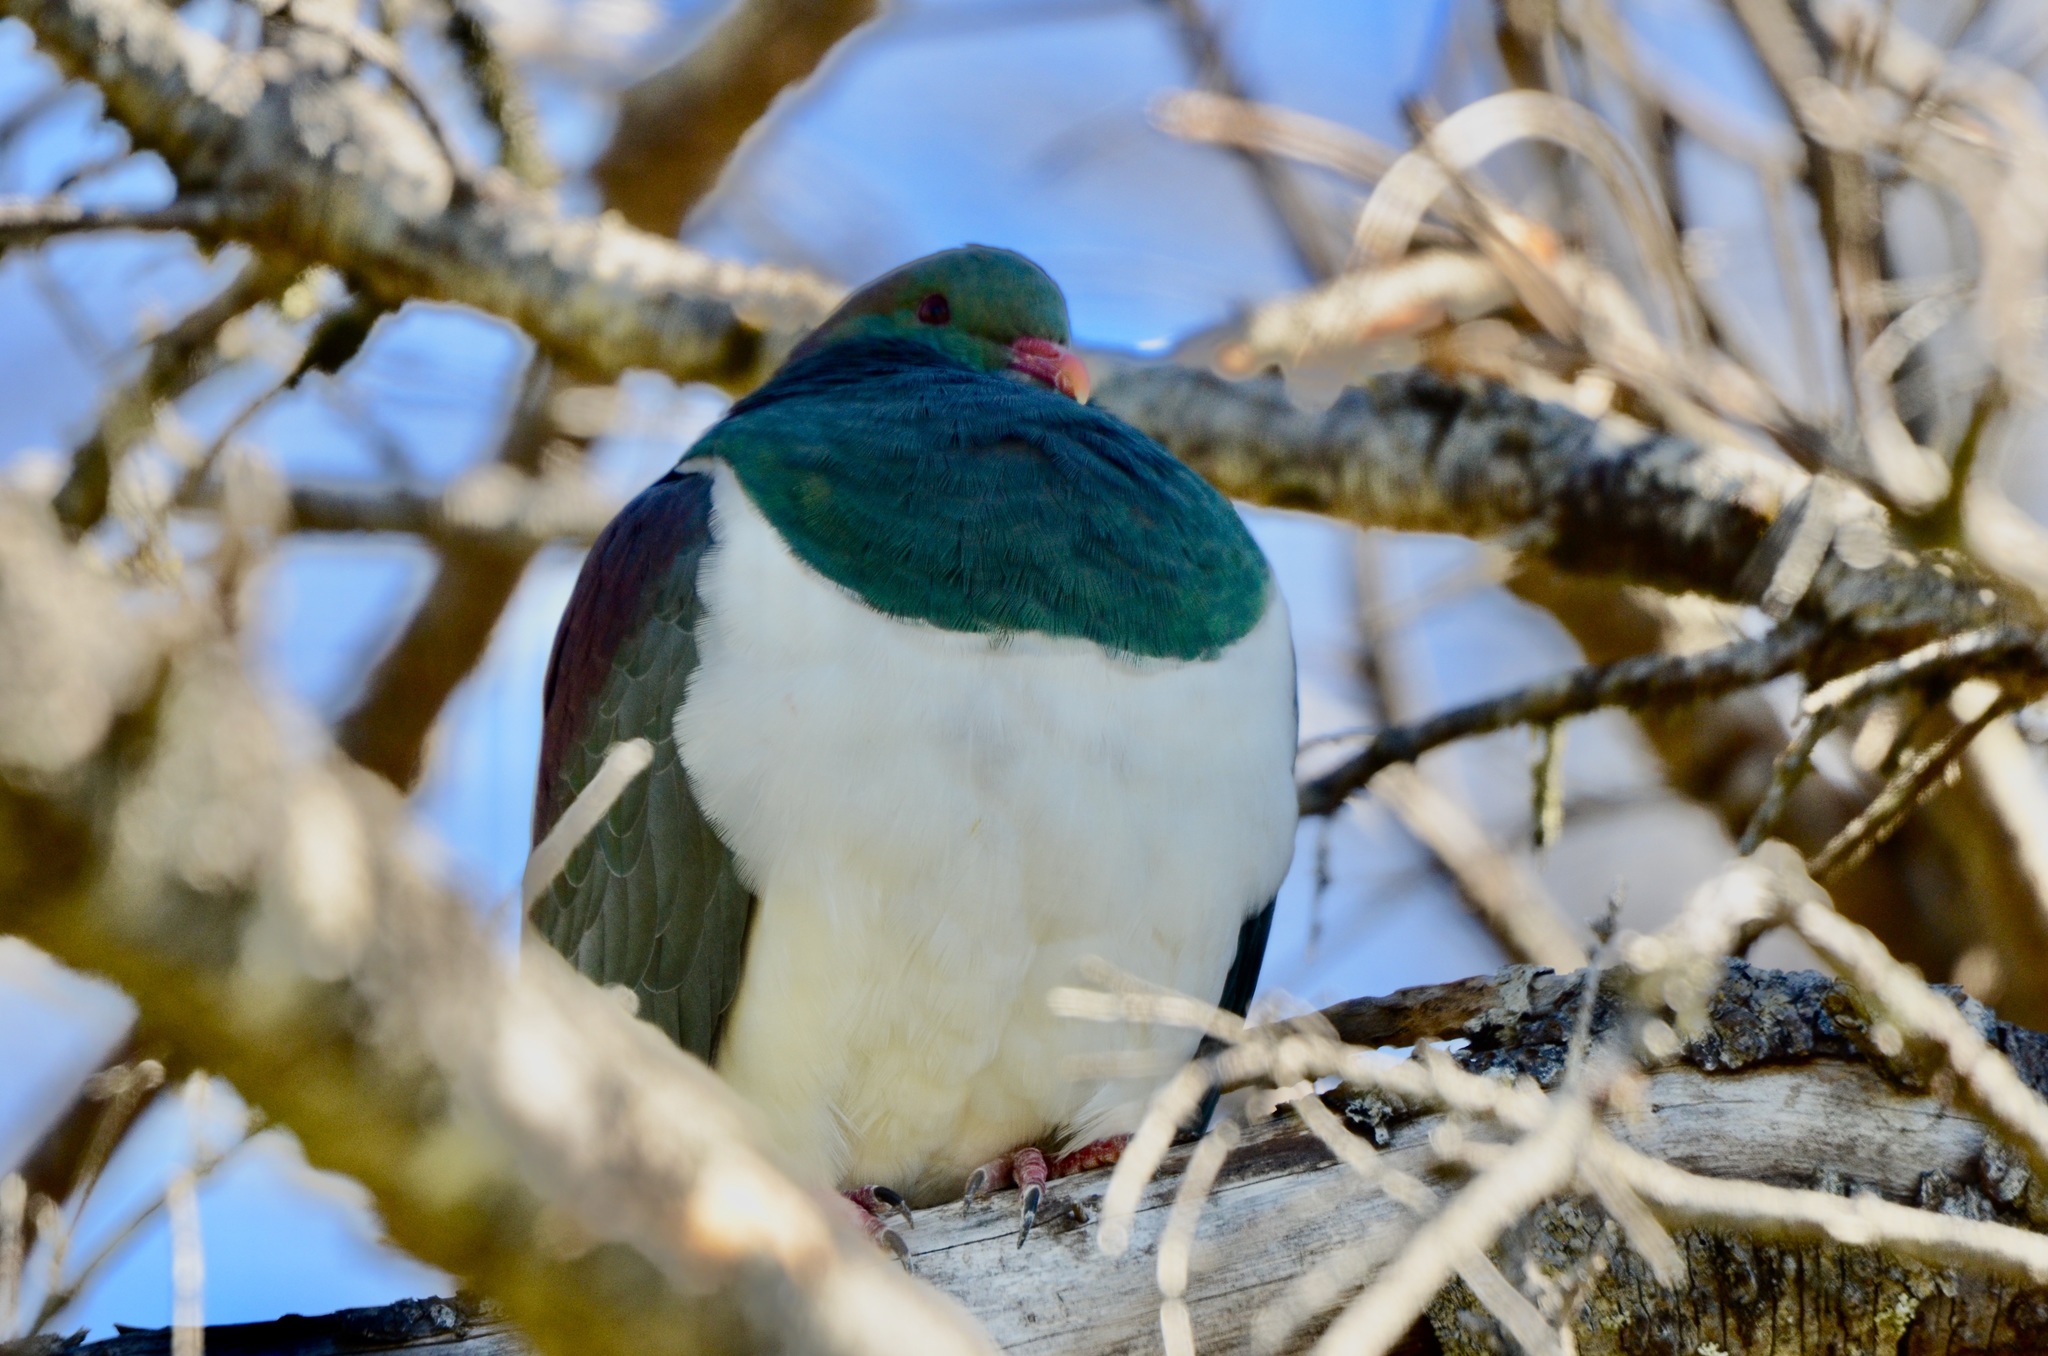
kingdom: Animalia
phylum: Chordata
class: Aves
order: Columbiformes
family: Columbidae
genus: Hemiphaga
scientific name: Hemiphaga novaeseelandiae
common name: New zealand pigeon
